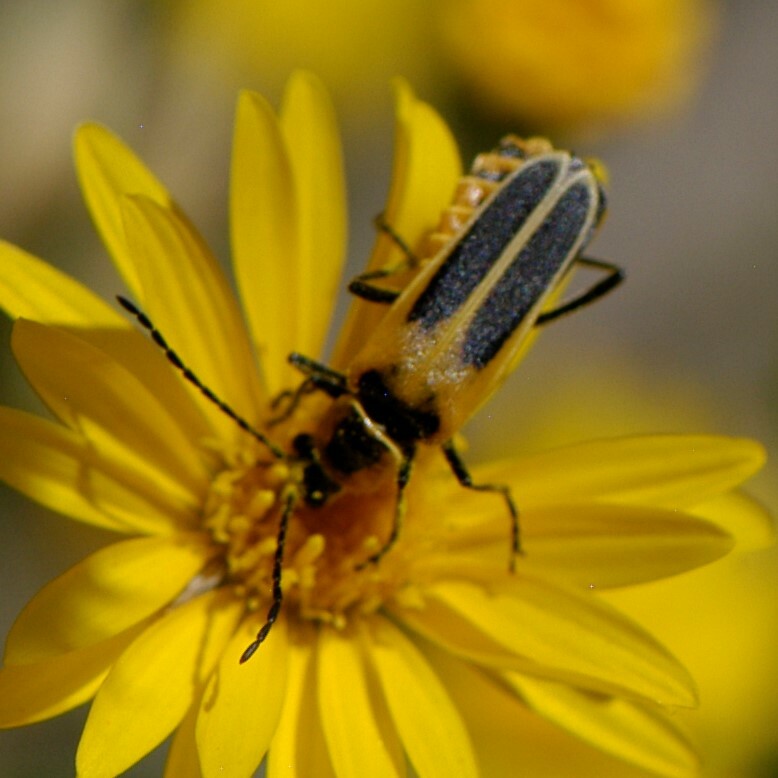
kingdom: Animalia
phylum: Arthropoda
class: Insecta
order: Coleoptera
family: Cantharidae
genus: Chauliognathus
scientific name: Chauliognathus lewisi
